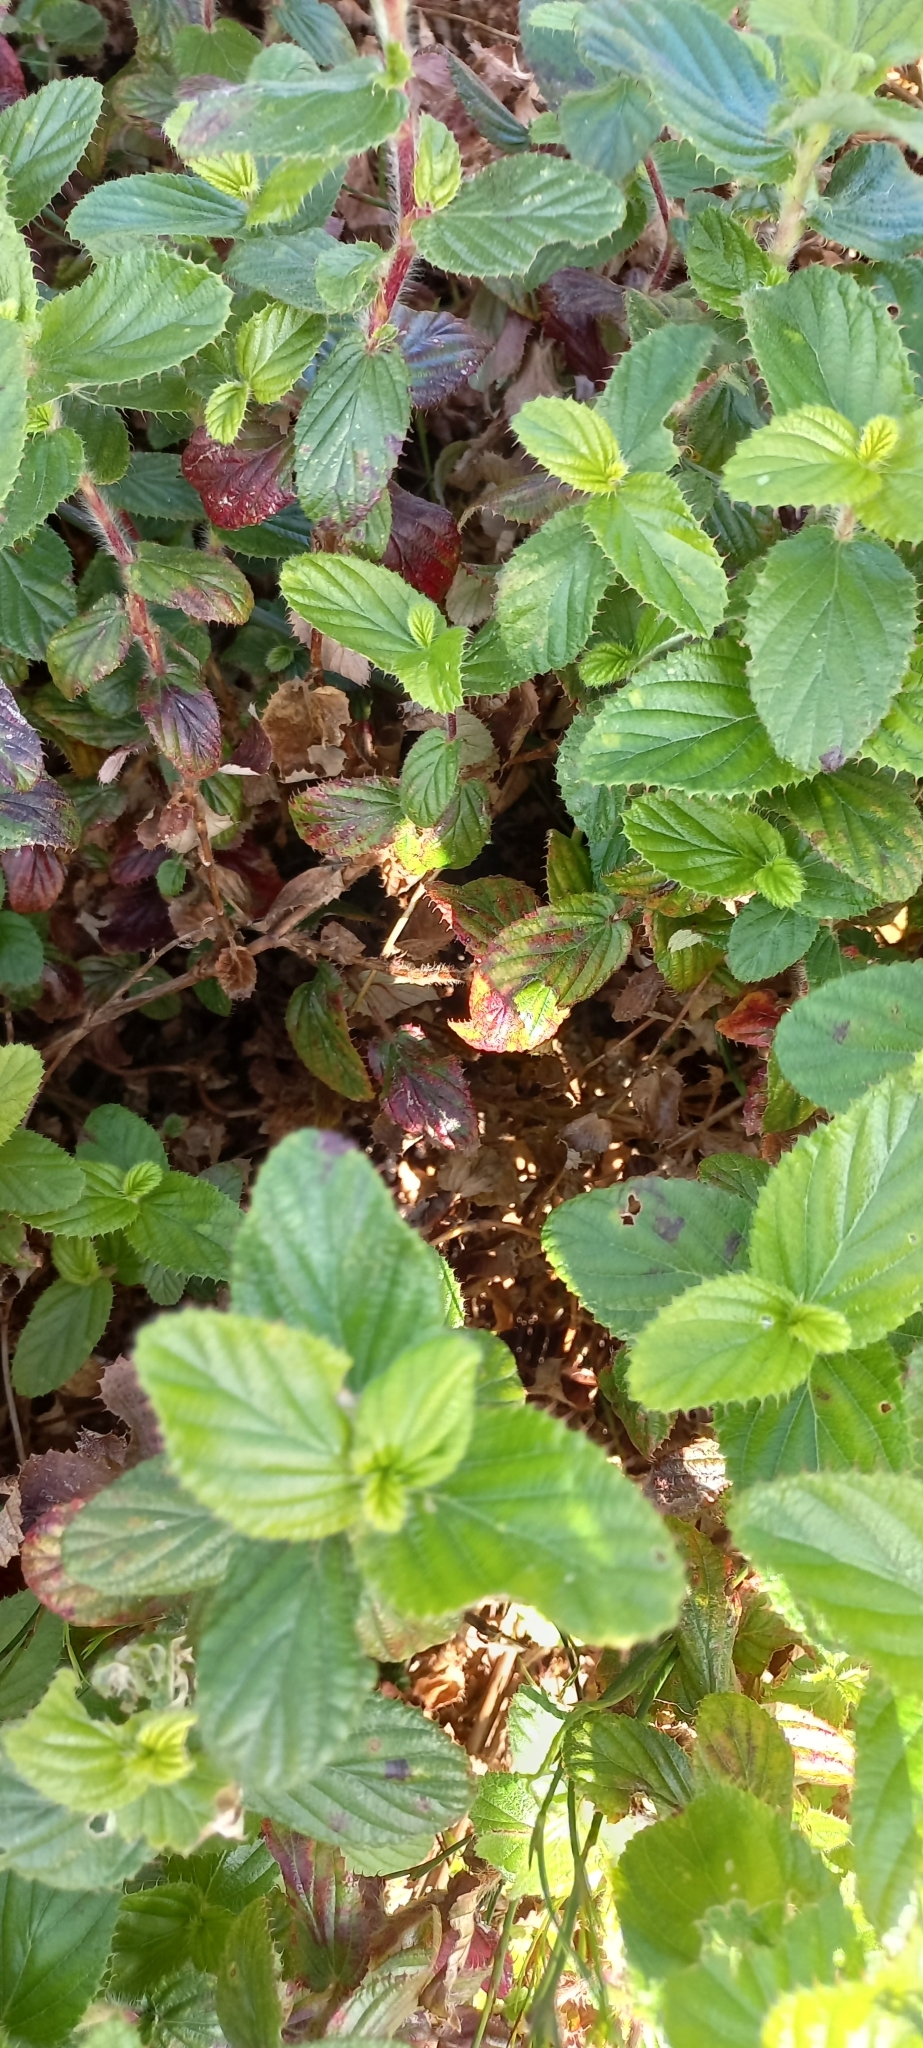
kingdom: Plantae
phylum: Tracheophyta
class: Magnoliopsida
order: Rosales
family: Rosaceae
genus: Cliffortia
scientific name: Cliffortia hirsuta
